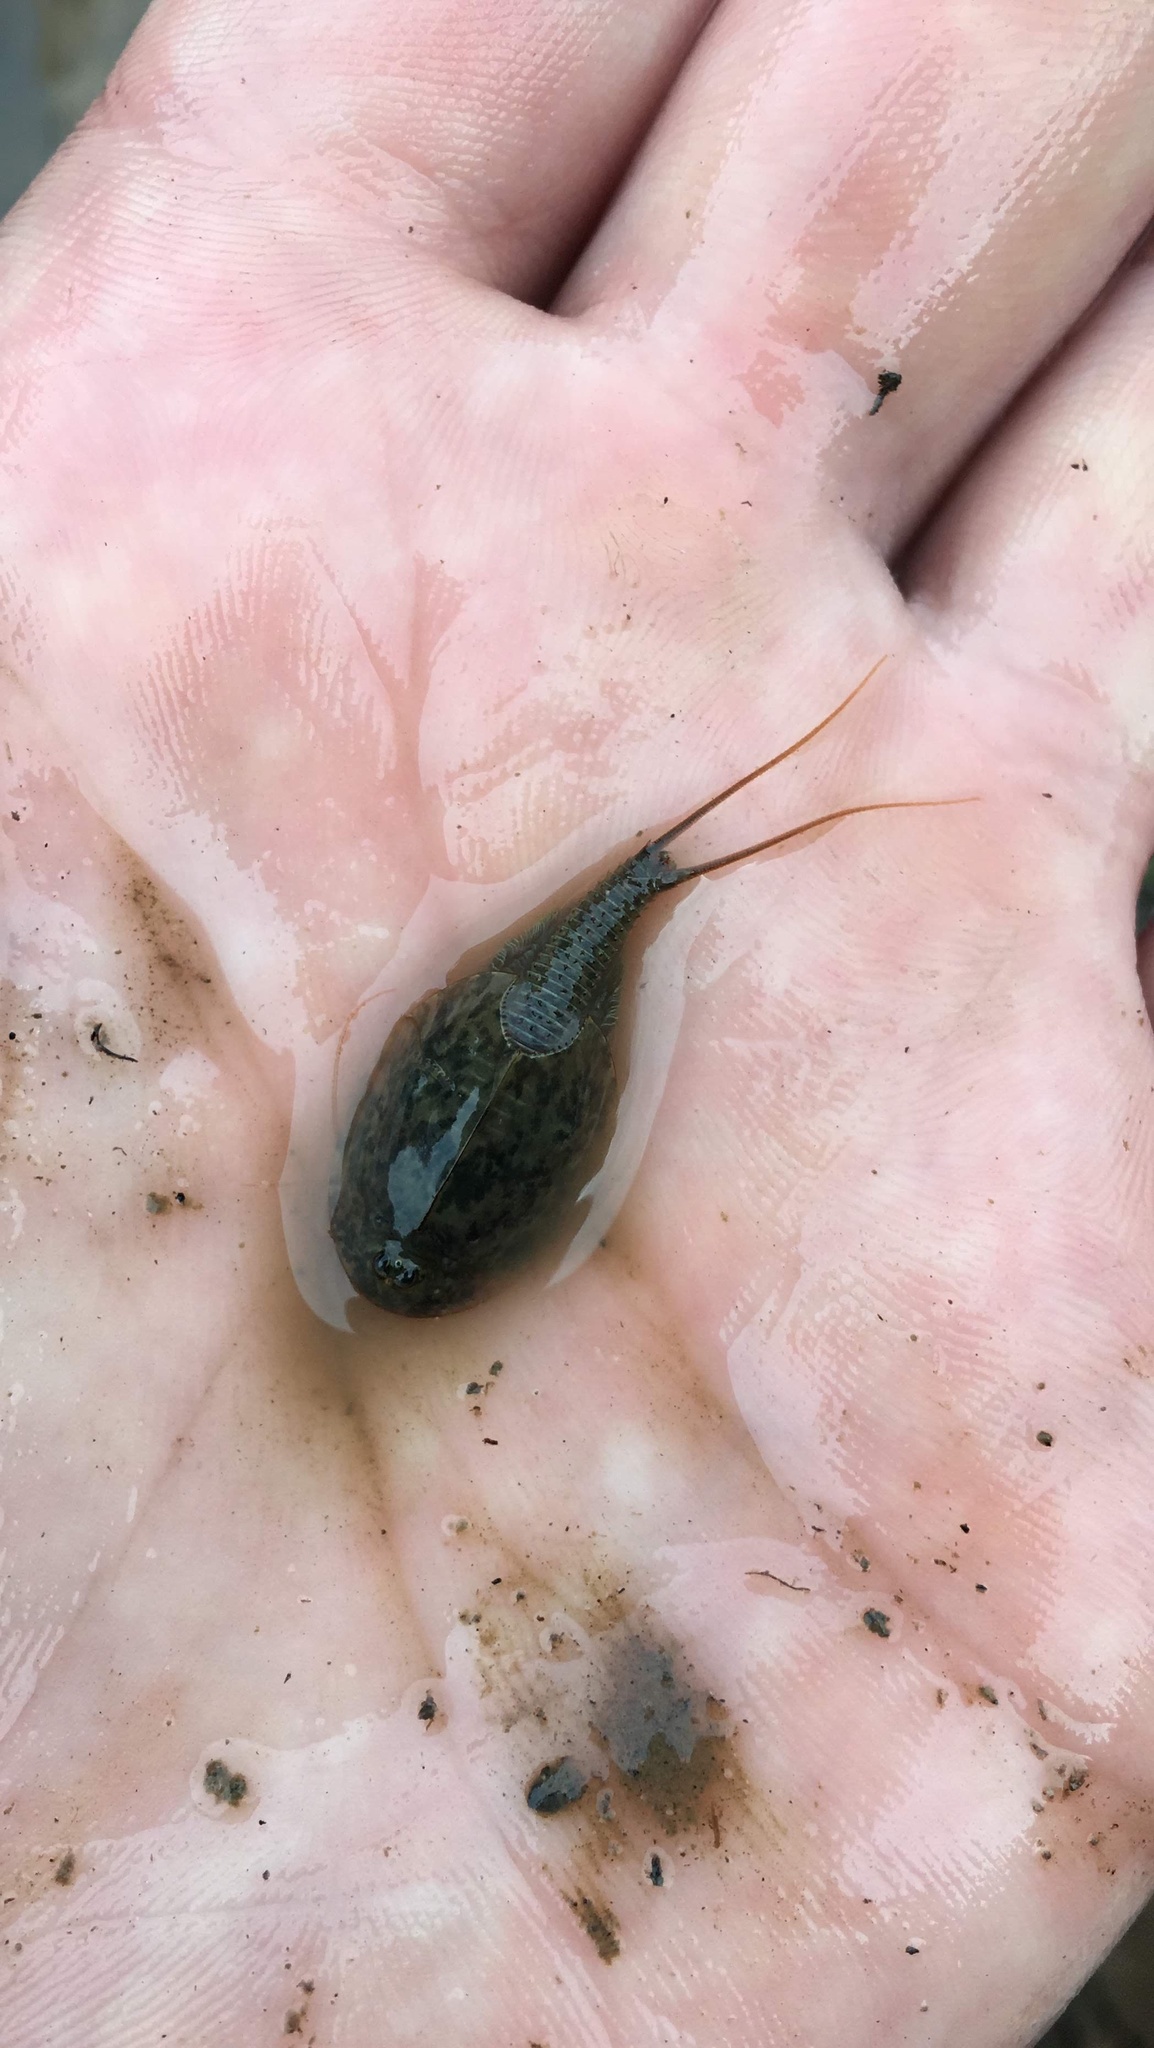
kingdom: Animalia
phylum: Arthropoda
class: Branchiopoda
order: Notostraca
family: Triopsidae
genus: Triops
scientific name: Triops cancriformis
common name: Tadpole shrimp
